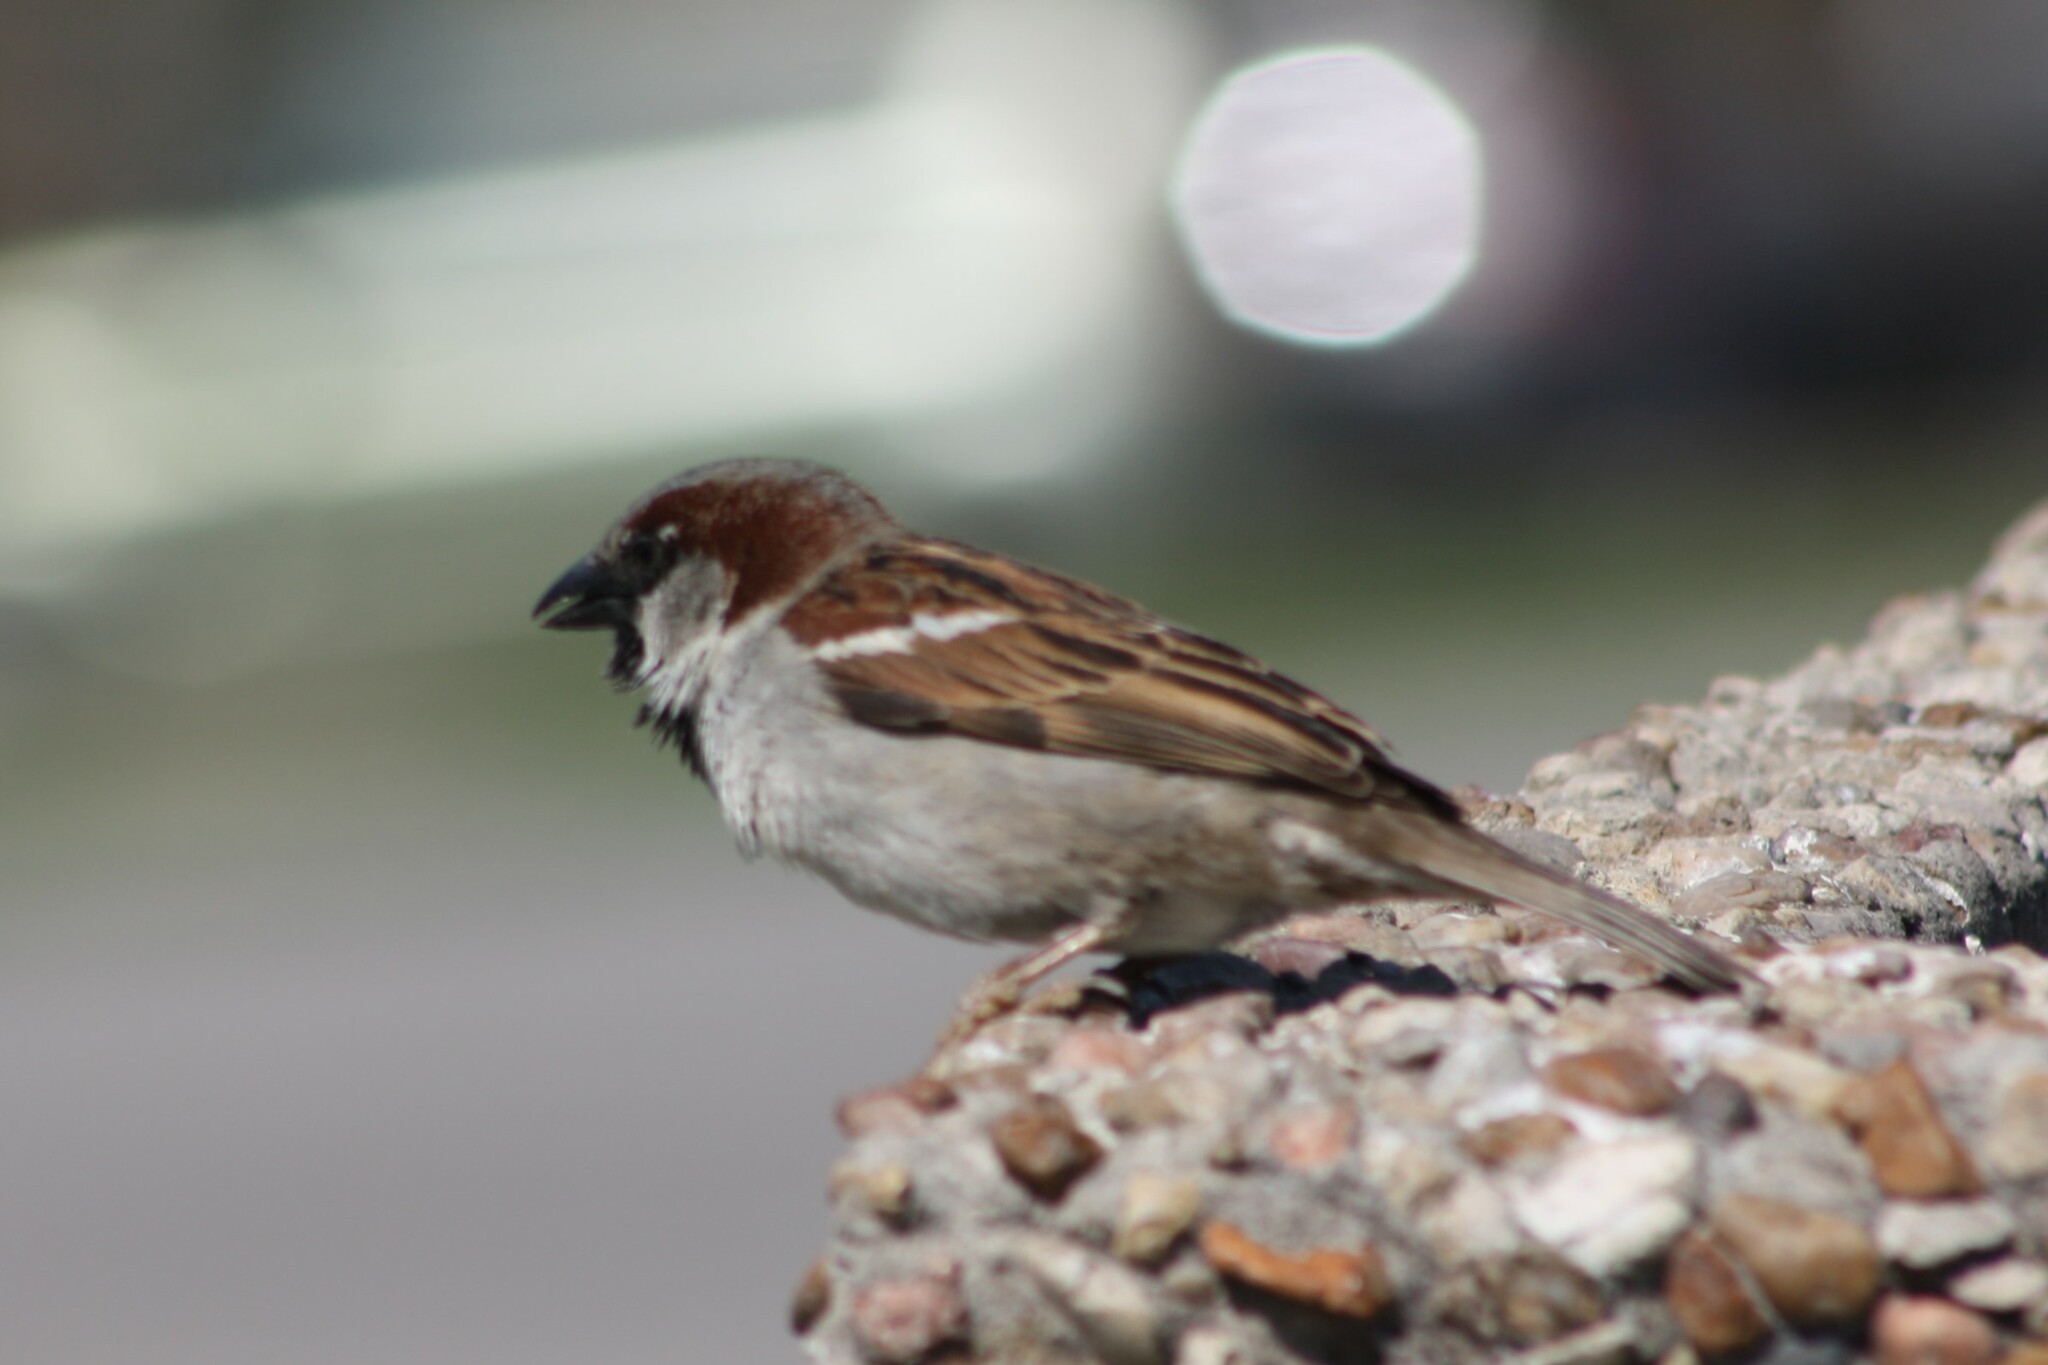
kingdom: Animalia
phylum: Chordata
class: Aves
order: Passeriformes
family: Passeridae
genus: Passer
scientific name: Passer domesticus
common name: House sparrow
